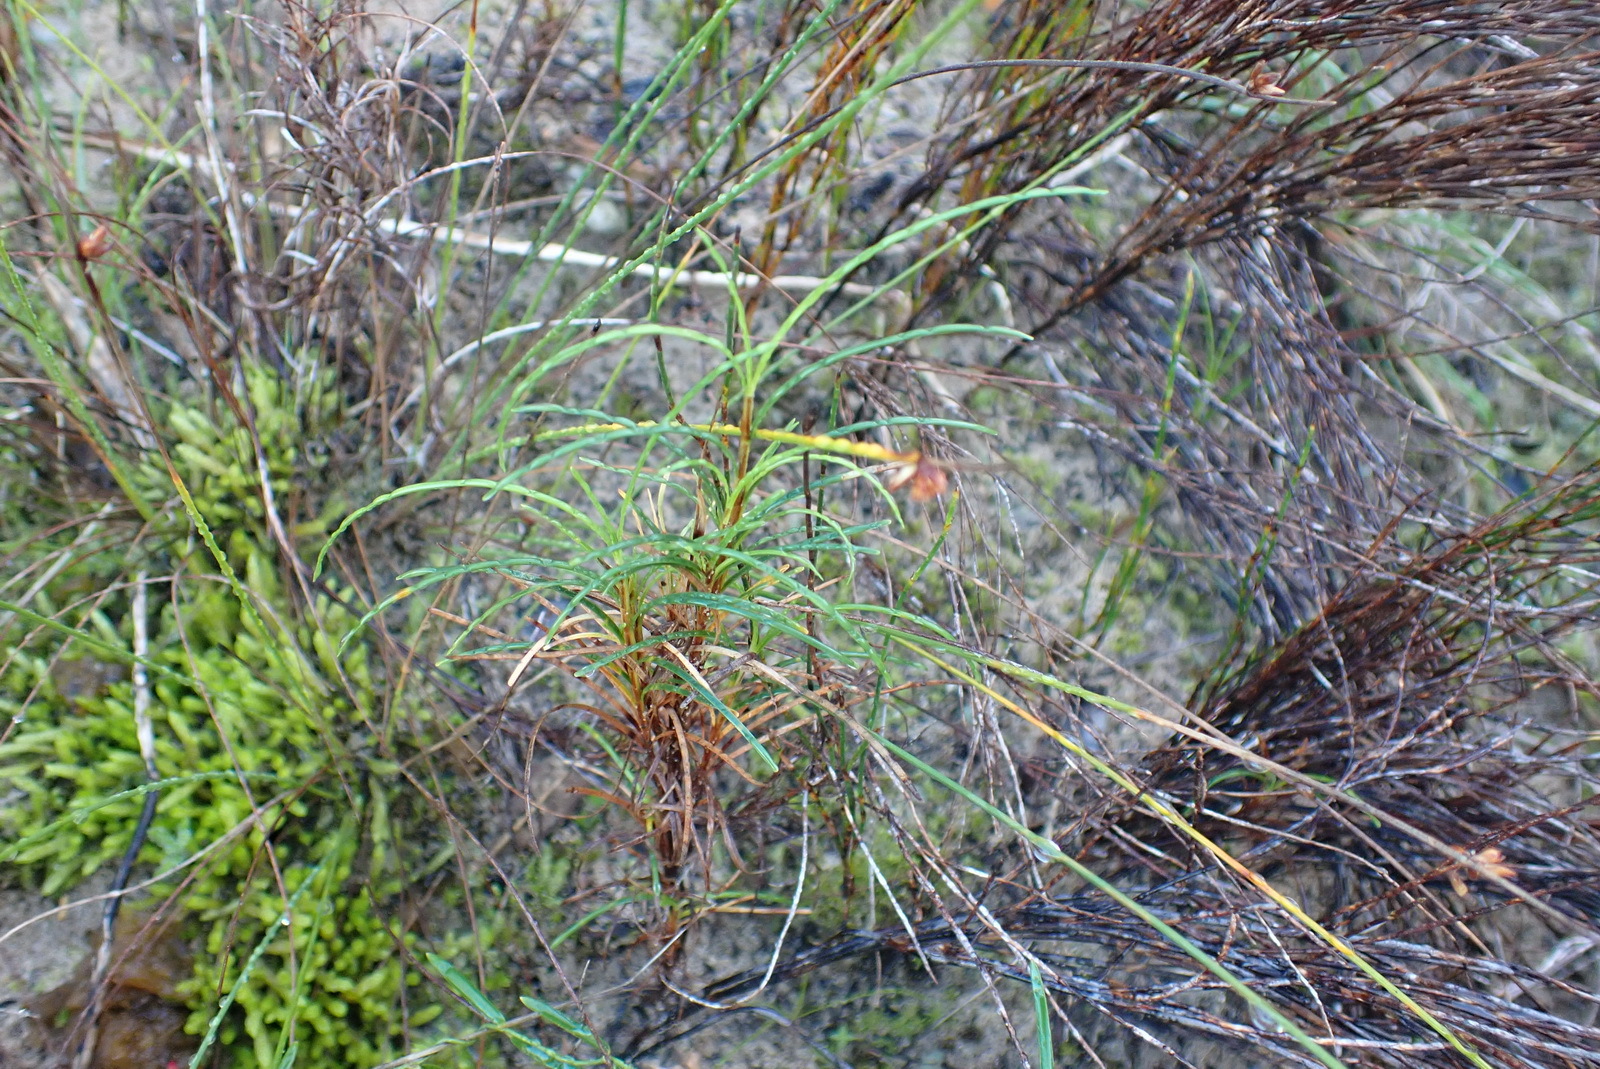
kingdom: Plantae
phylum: Tracheophyta
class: Liliopsida
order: Poales
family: Cyperaceae
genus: Ficinia
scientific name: Ficinia ramosissima
